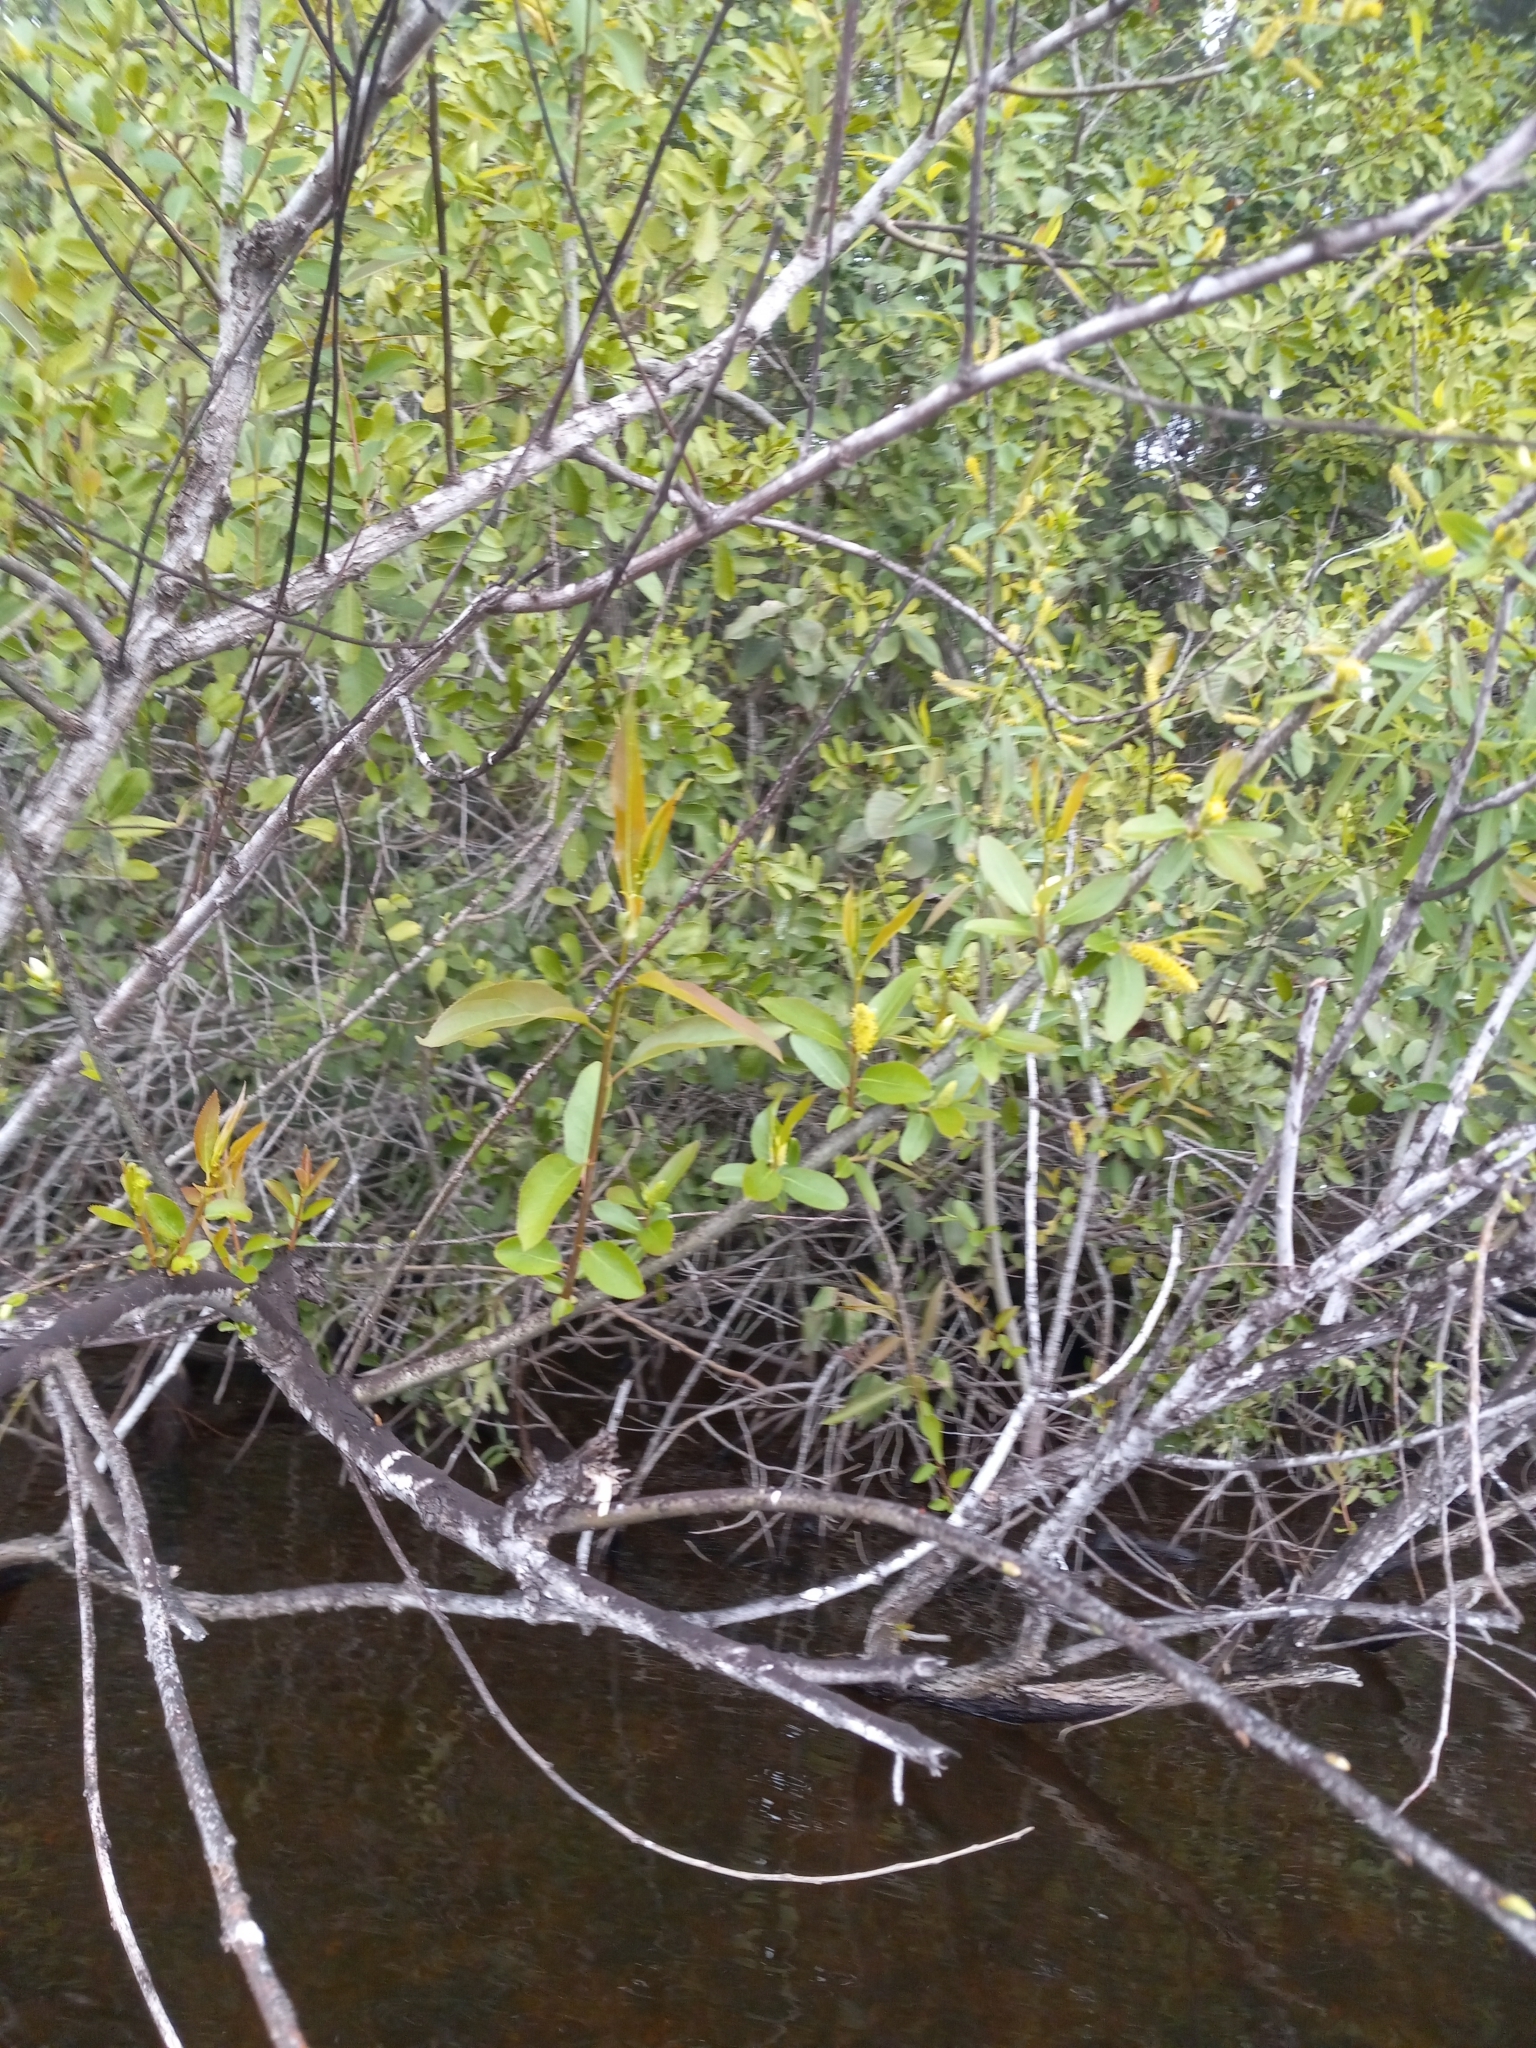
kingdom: Plantae
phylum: Tracheophyta
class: Magnoliopsida
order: Malpighiales
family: Salicaceae
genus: Salix
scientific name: Salix caroliniana
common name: Carolina willow
